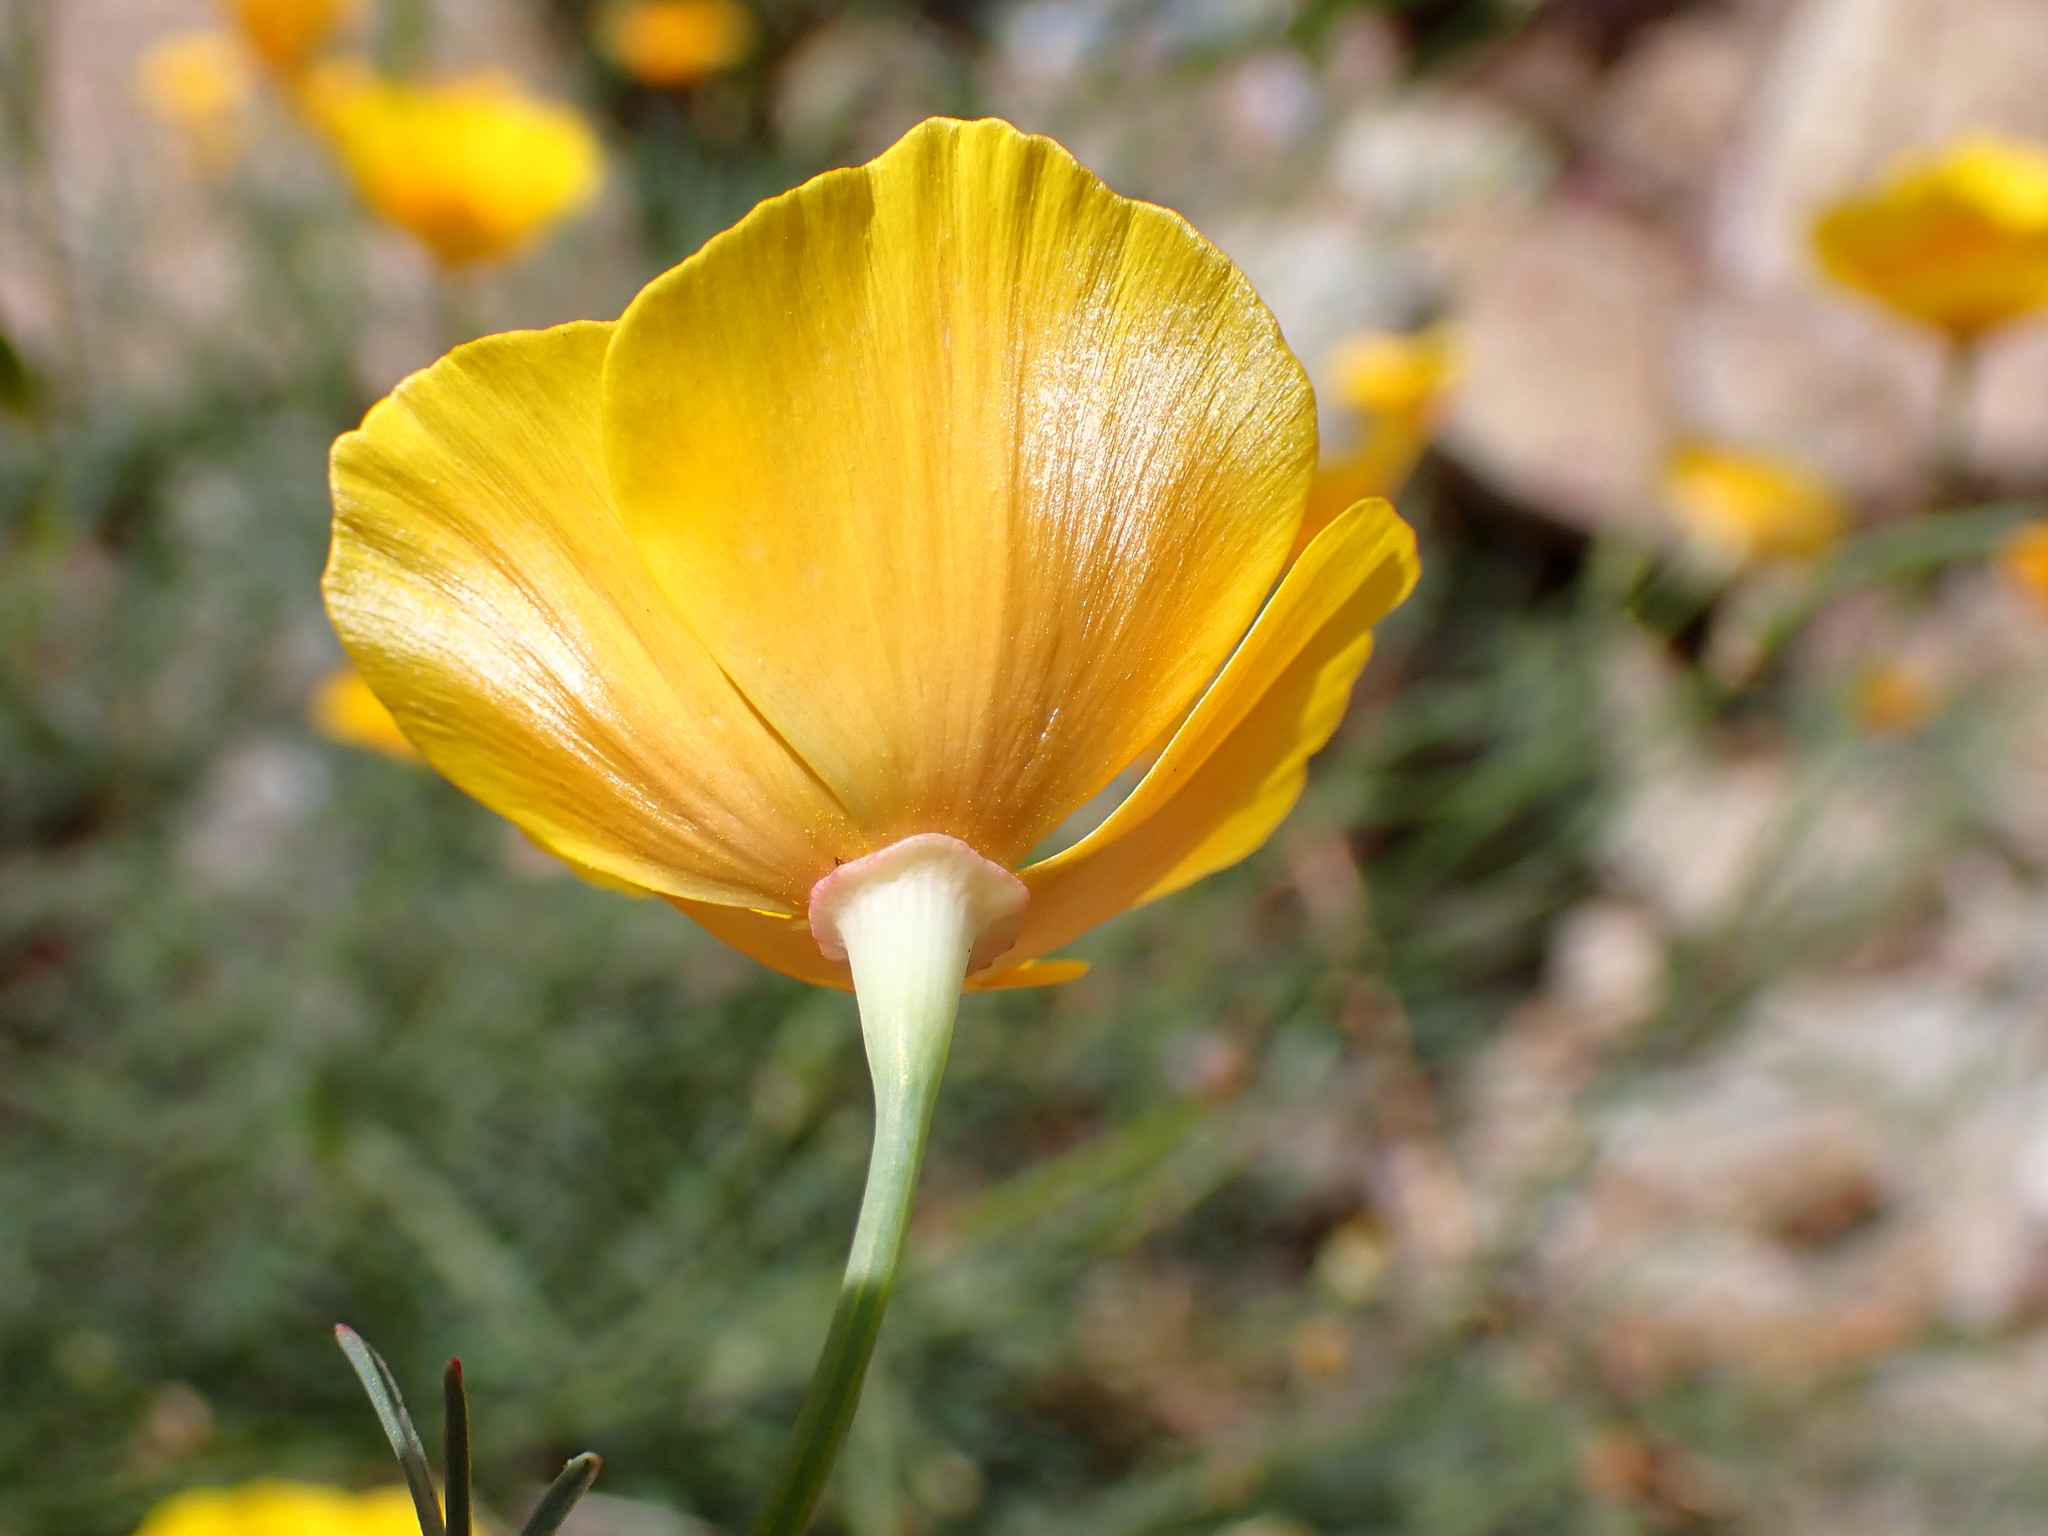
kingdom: Plantae
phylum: Tracheophyta
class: Magnoliopsida
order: Ranunculales
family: Papaveraceae
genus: Eschscholzia
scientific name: Eschscholzia californica
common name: California poppy
